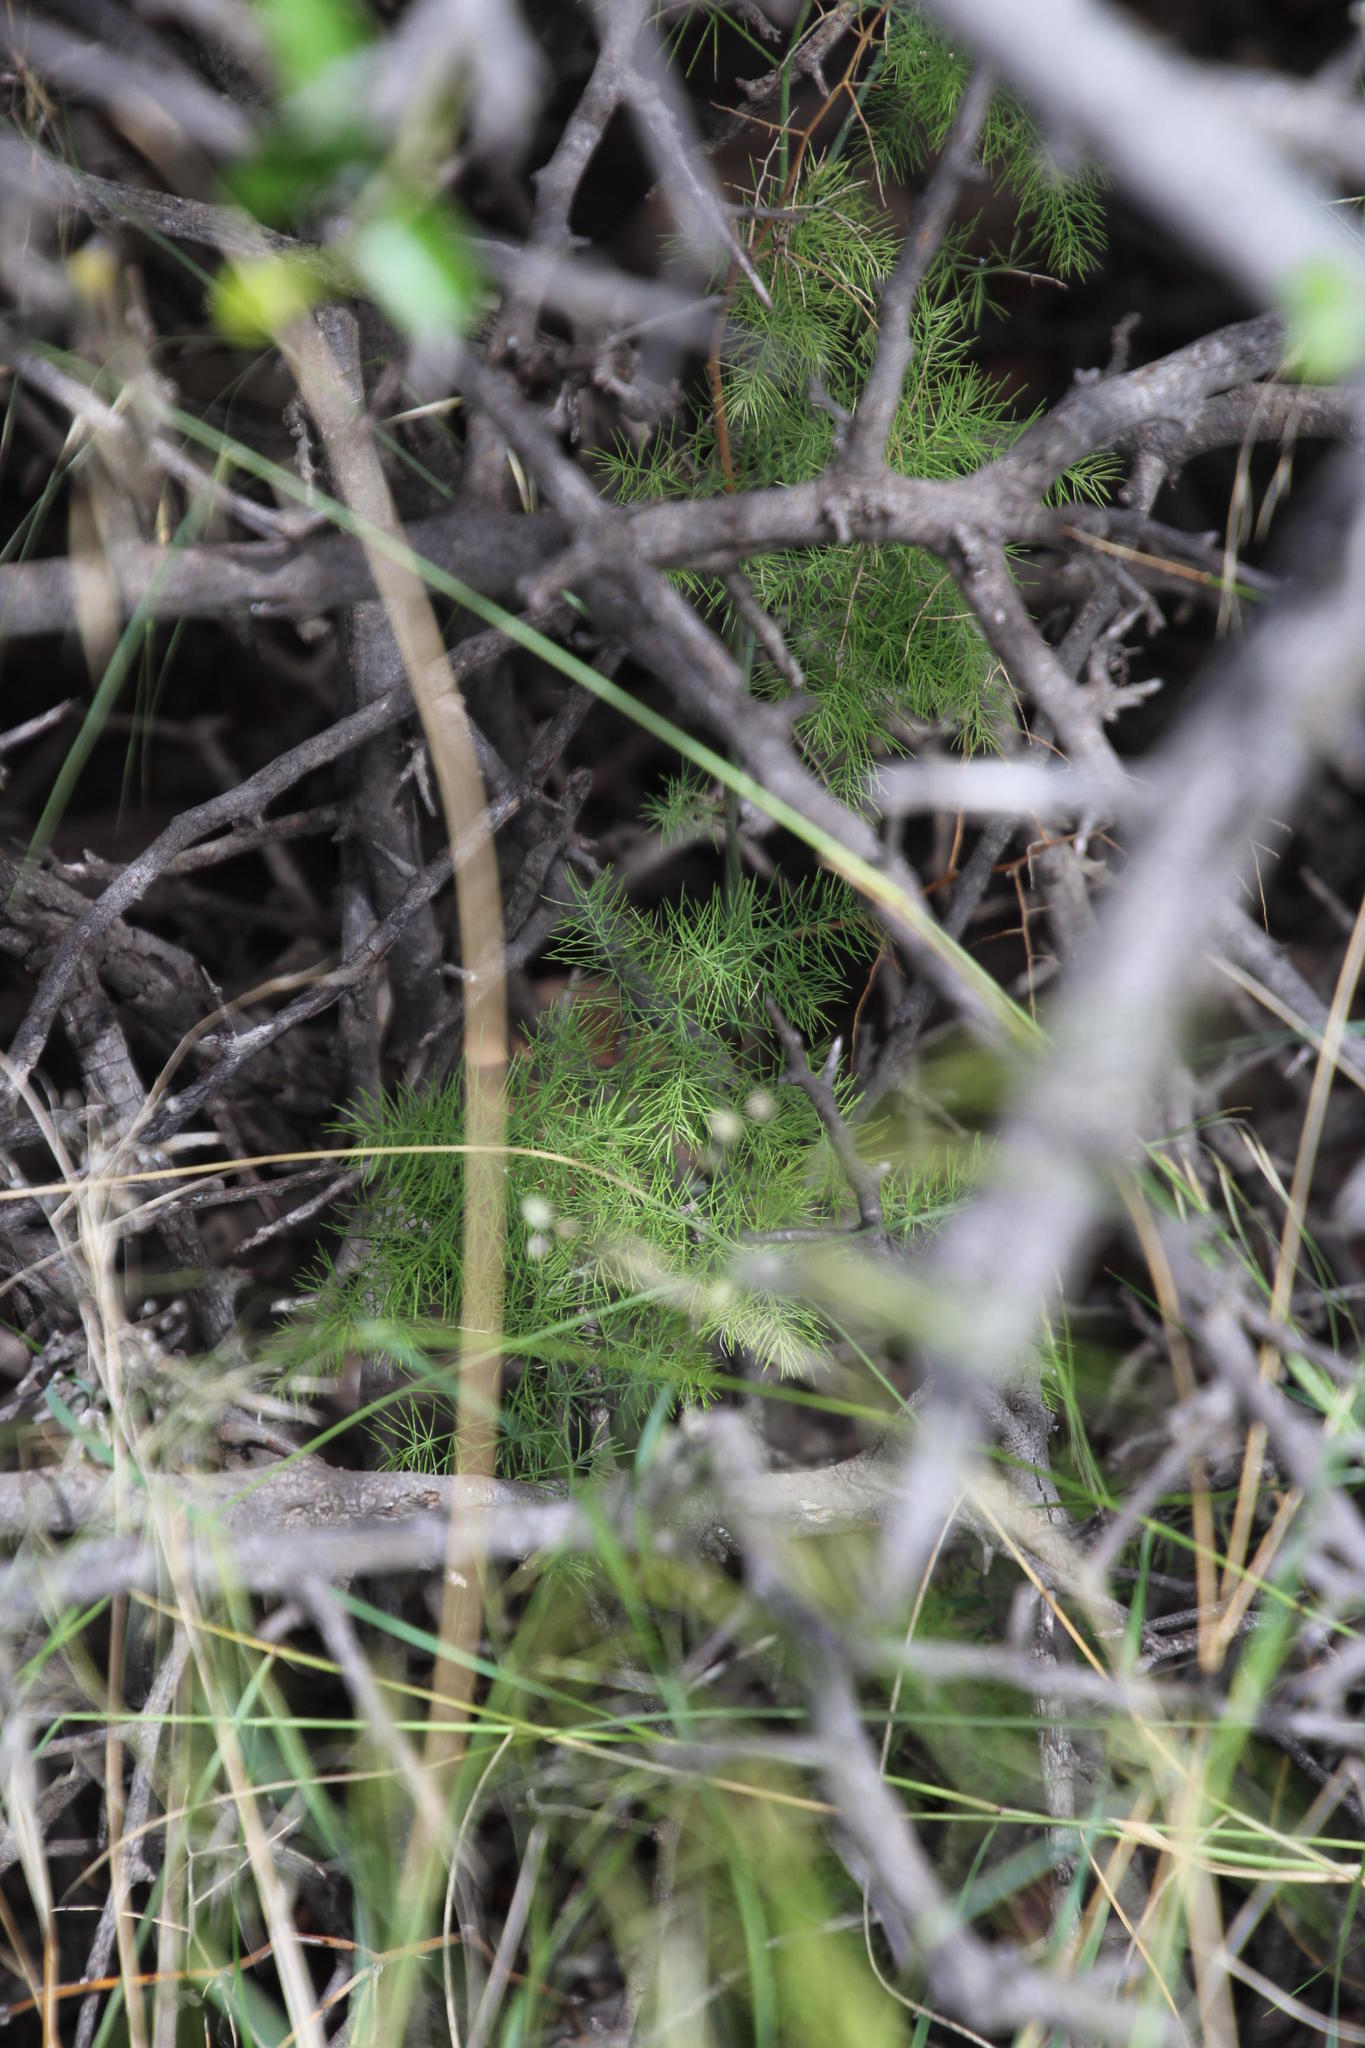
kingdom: Plantae
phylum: Tracheophyta
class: Liliopsida
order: Asparagales
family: Asparagaceae
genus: Asparagus
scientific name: Asparagus setaceus
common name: Common asparagus fern
